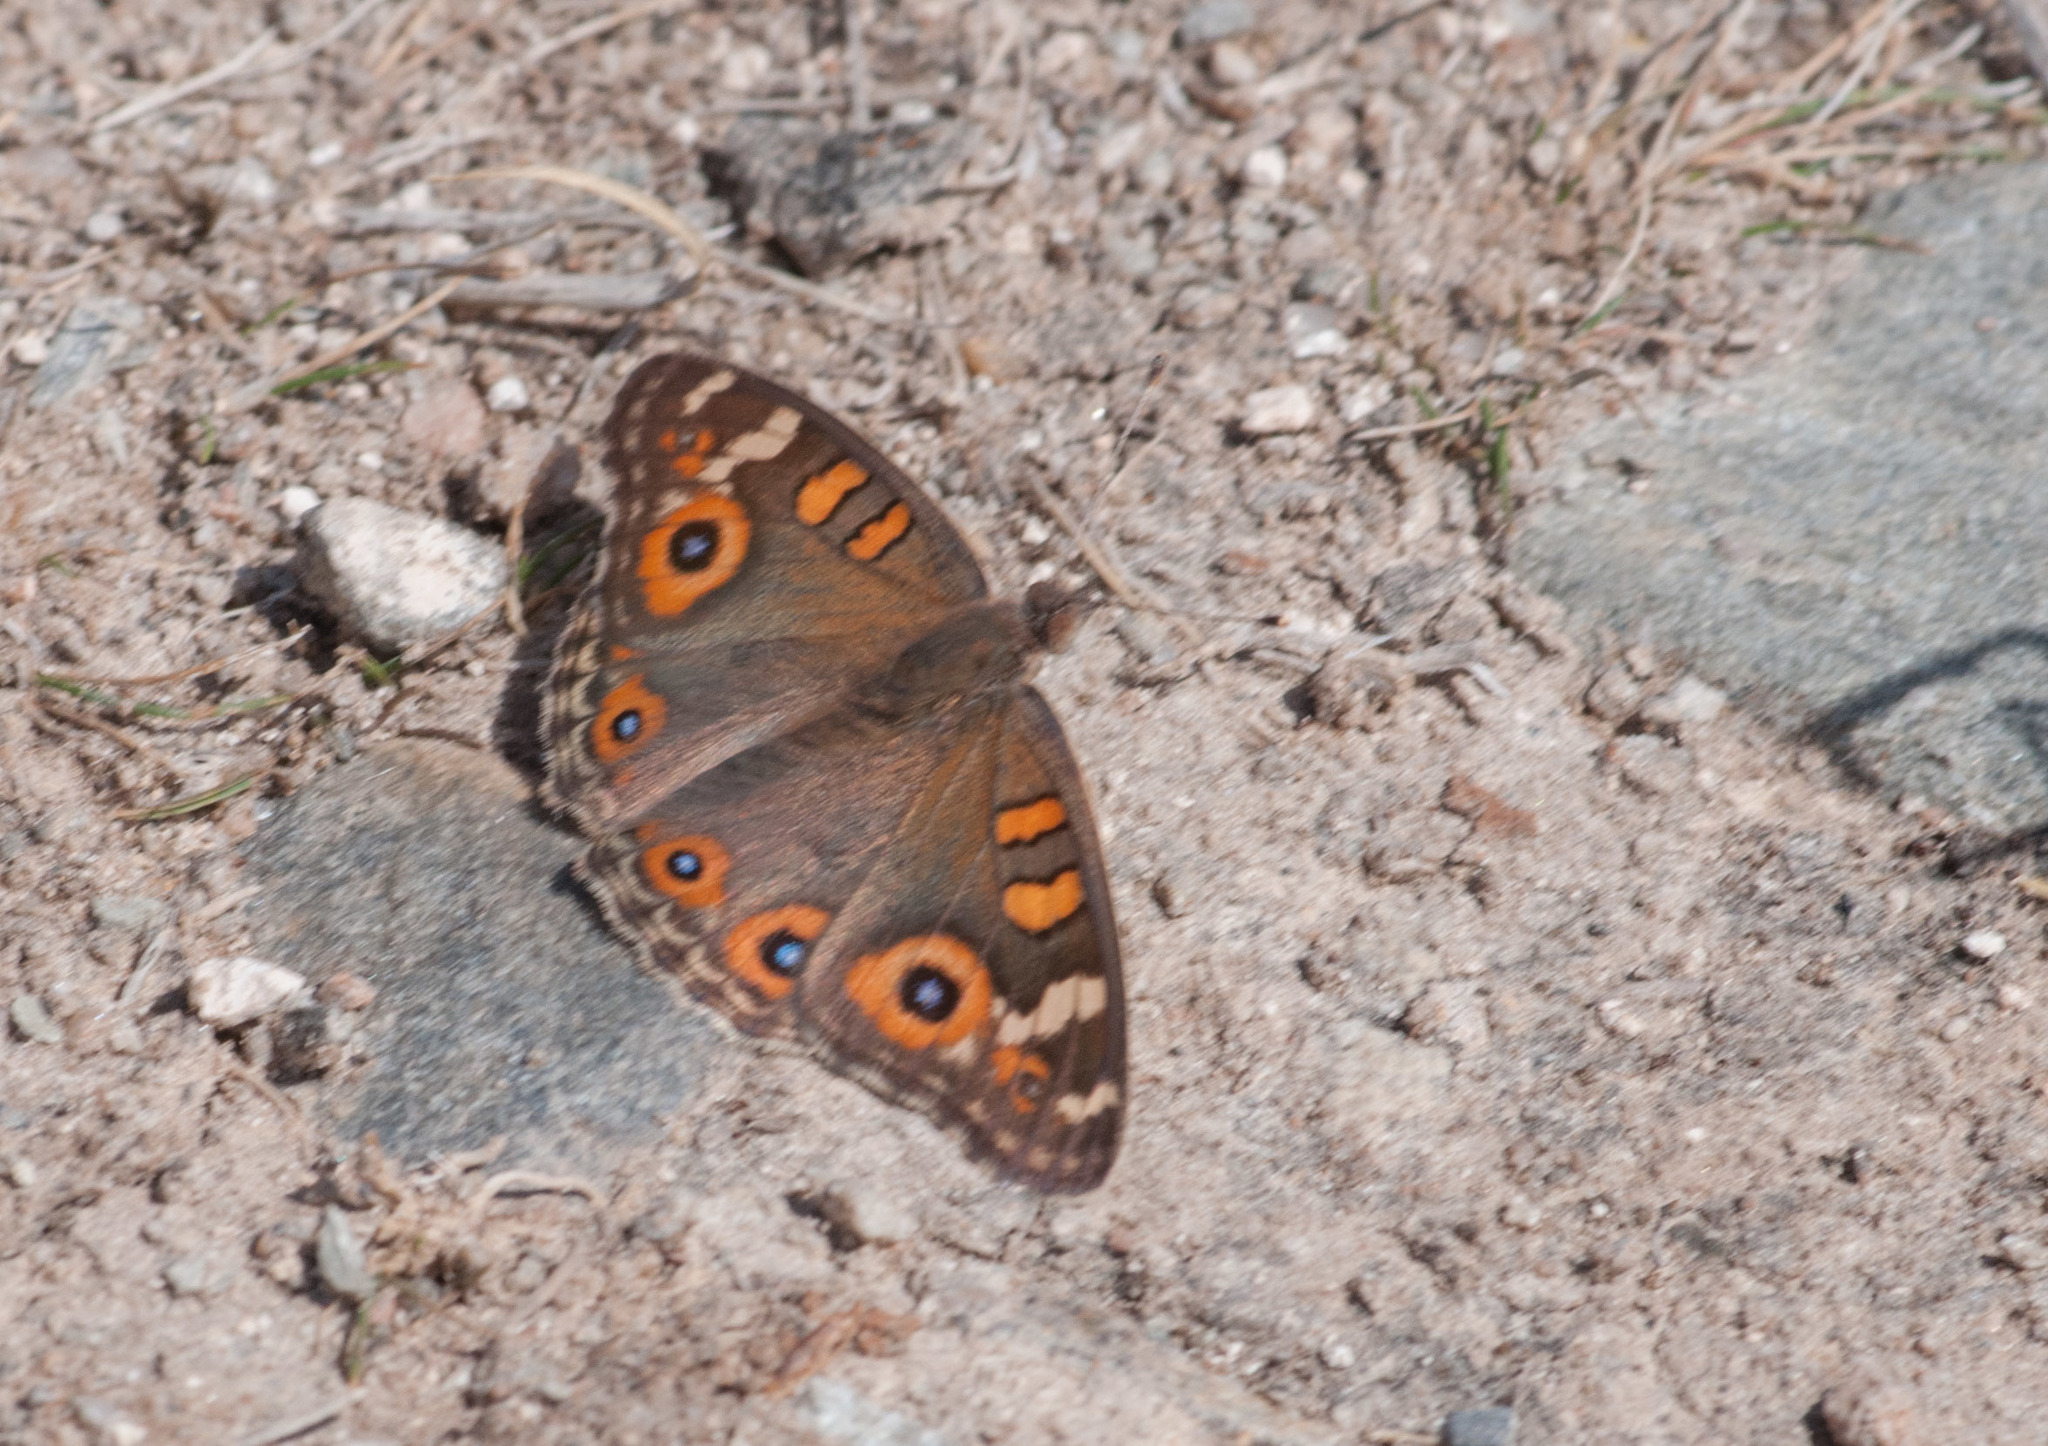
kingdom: Animalia
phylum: Arthropoda
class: Insecta
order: Lepidoptera
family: Nymphalidae
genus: Junonia
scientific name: Junonia villida
